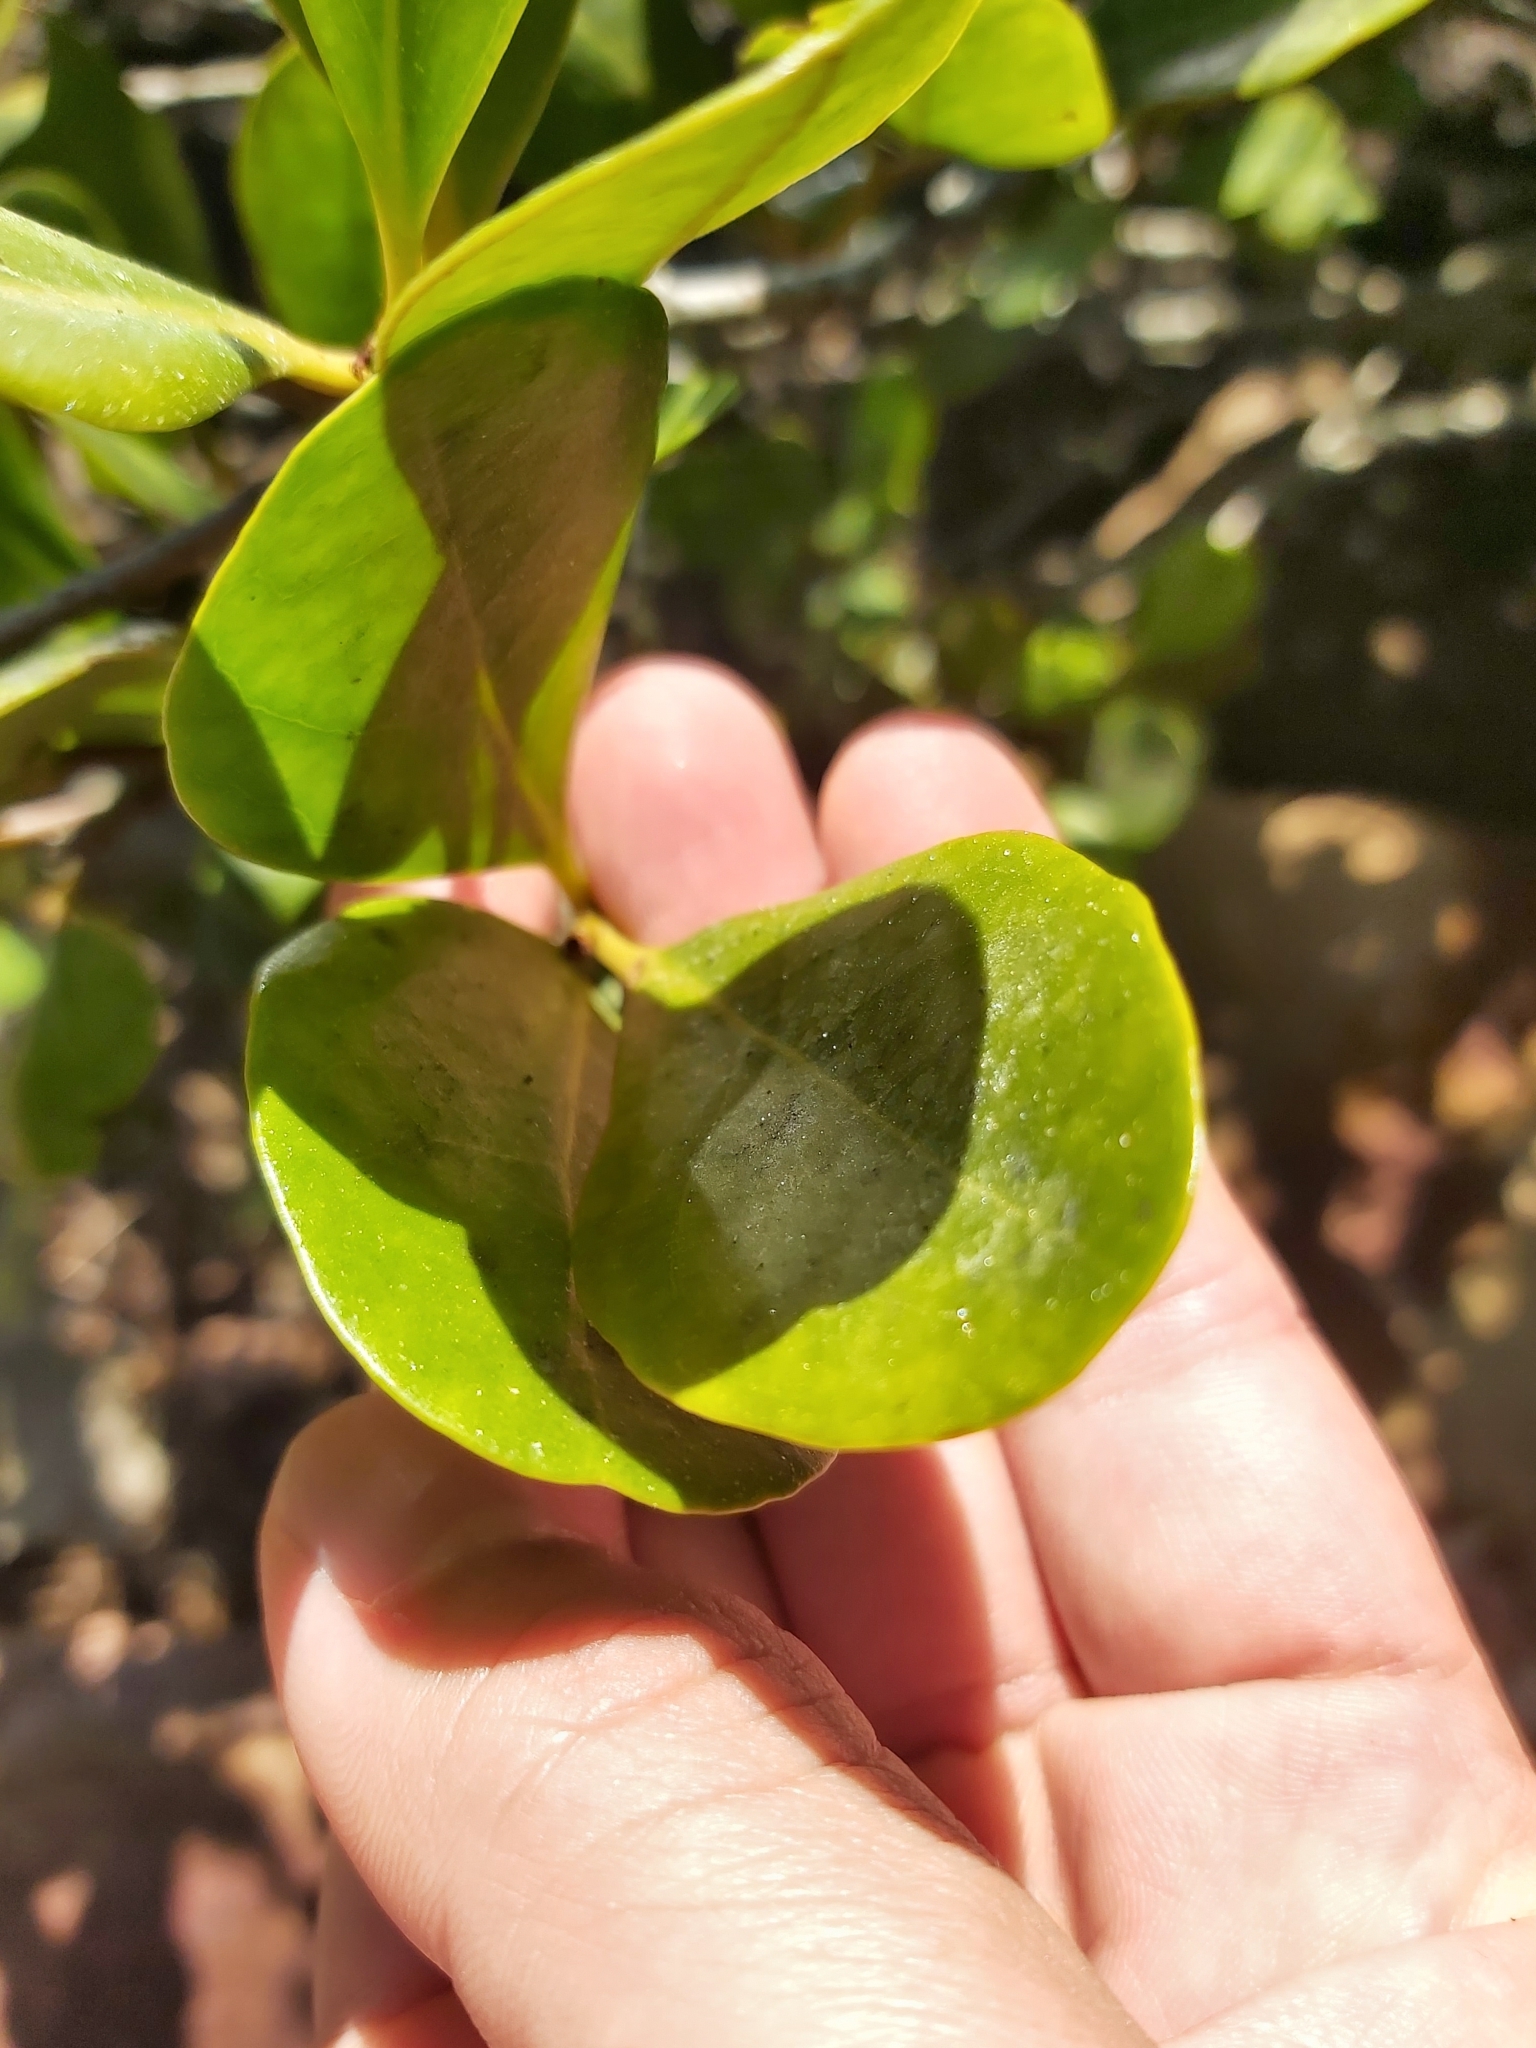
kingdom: Plantae
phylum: Tracheophyta
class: Magnoliopsida
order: Ericales
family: Primulaceae
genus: Aegiceras
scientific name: Aegiceras corniculatum
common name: River mangrove
